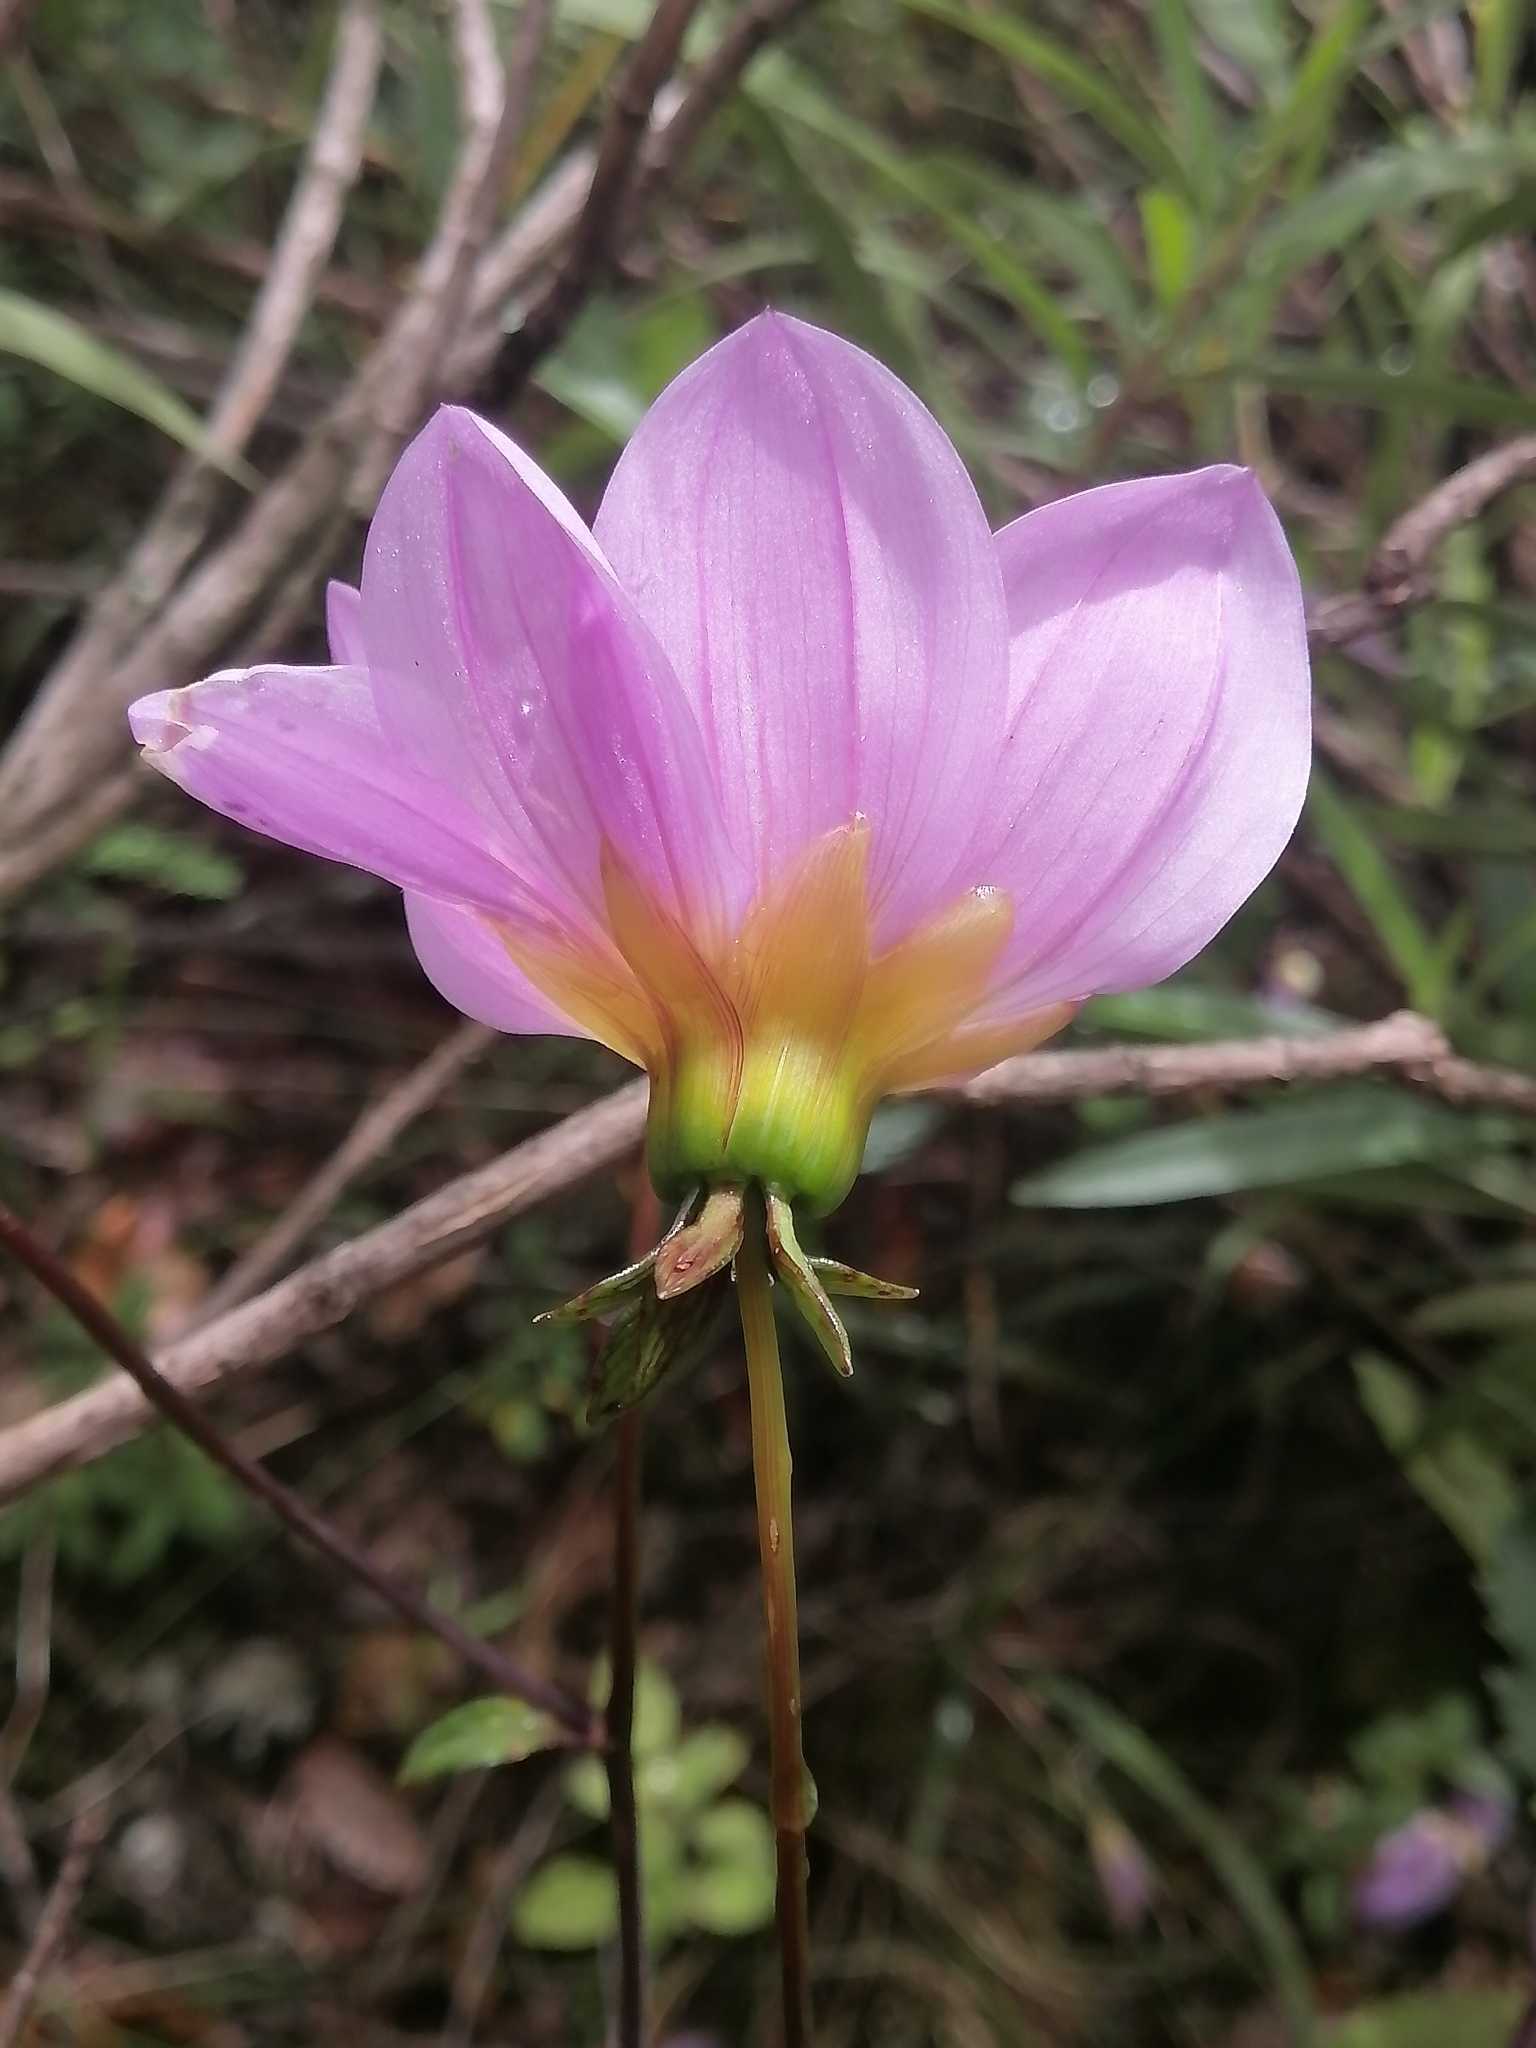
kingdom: Plantae
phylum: Tracheophyta
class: Magnoliopsida
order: Asterales
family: Asteraceae
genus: Dahlia
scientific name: Dahlia sorensenii
